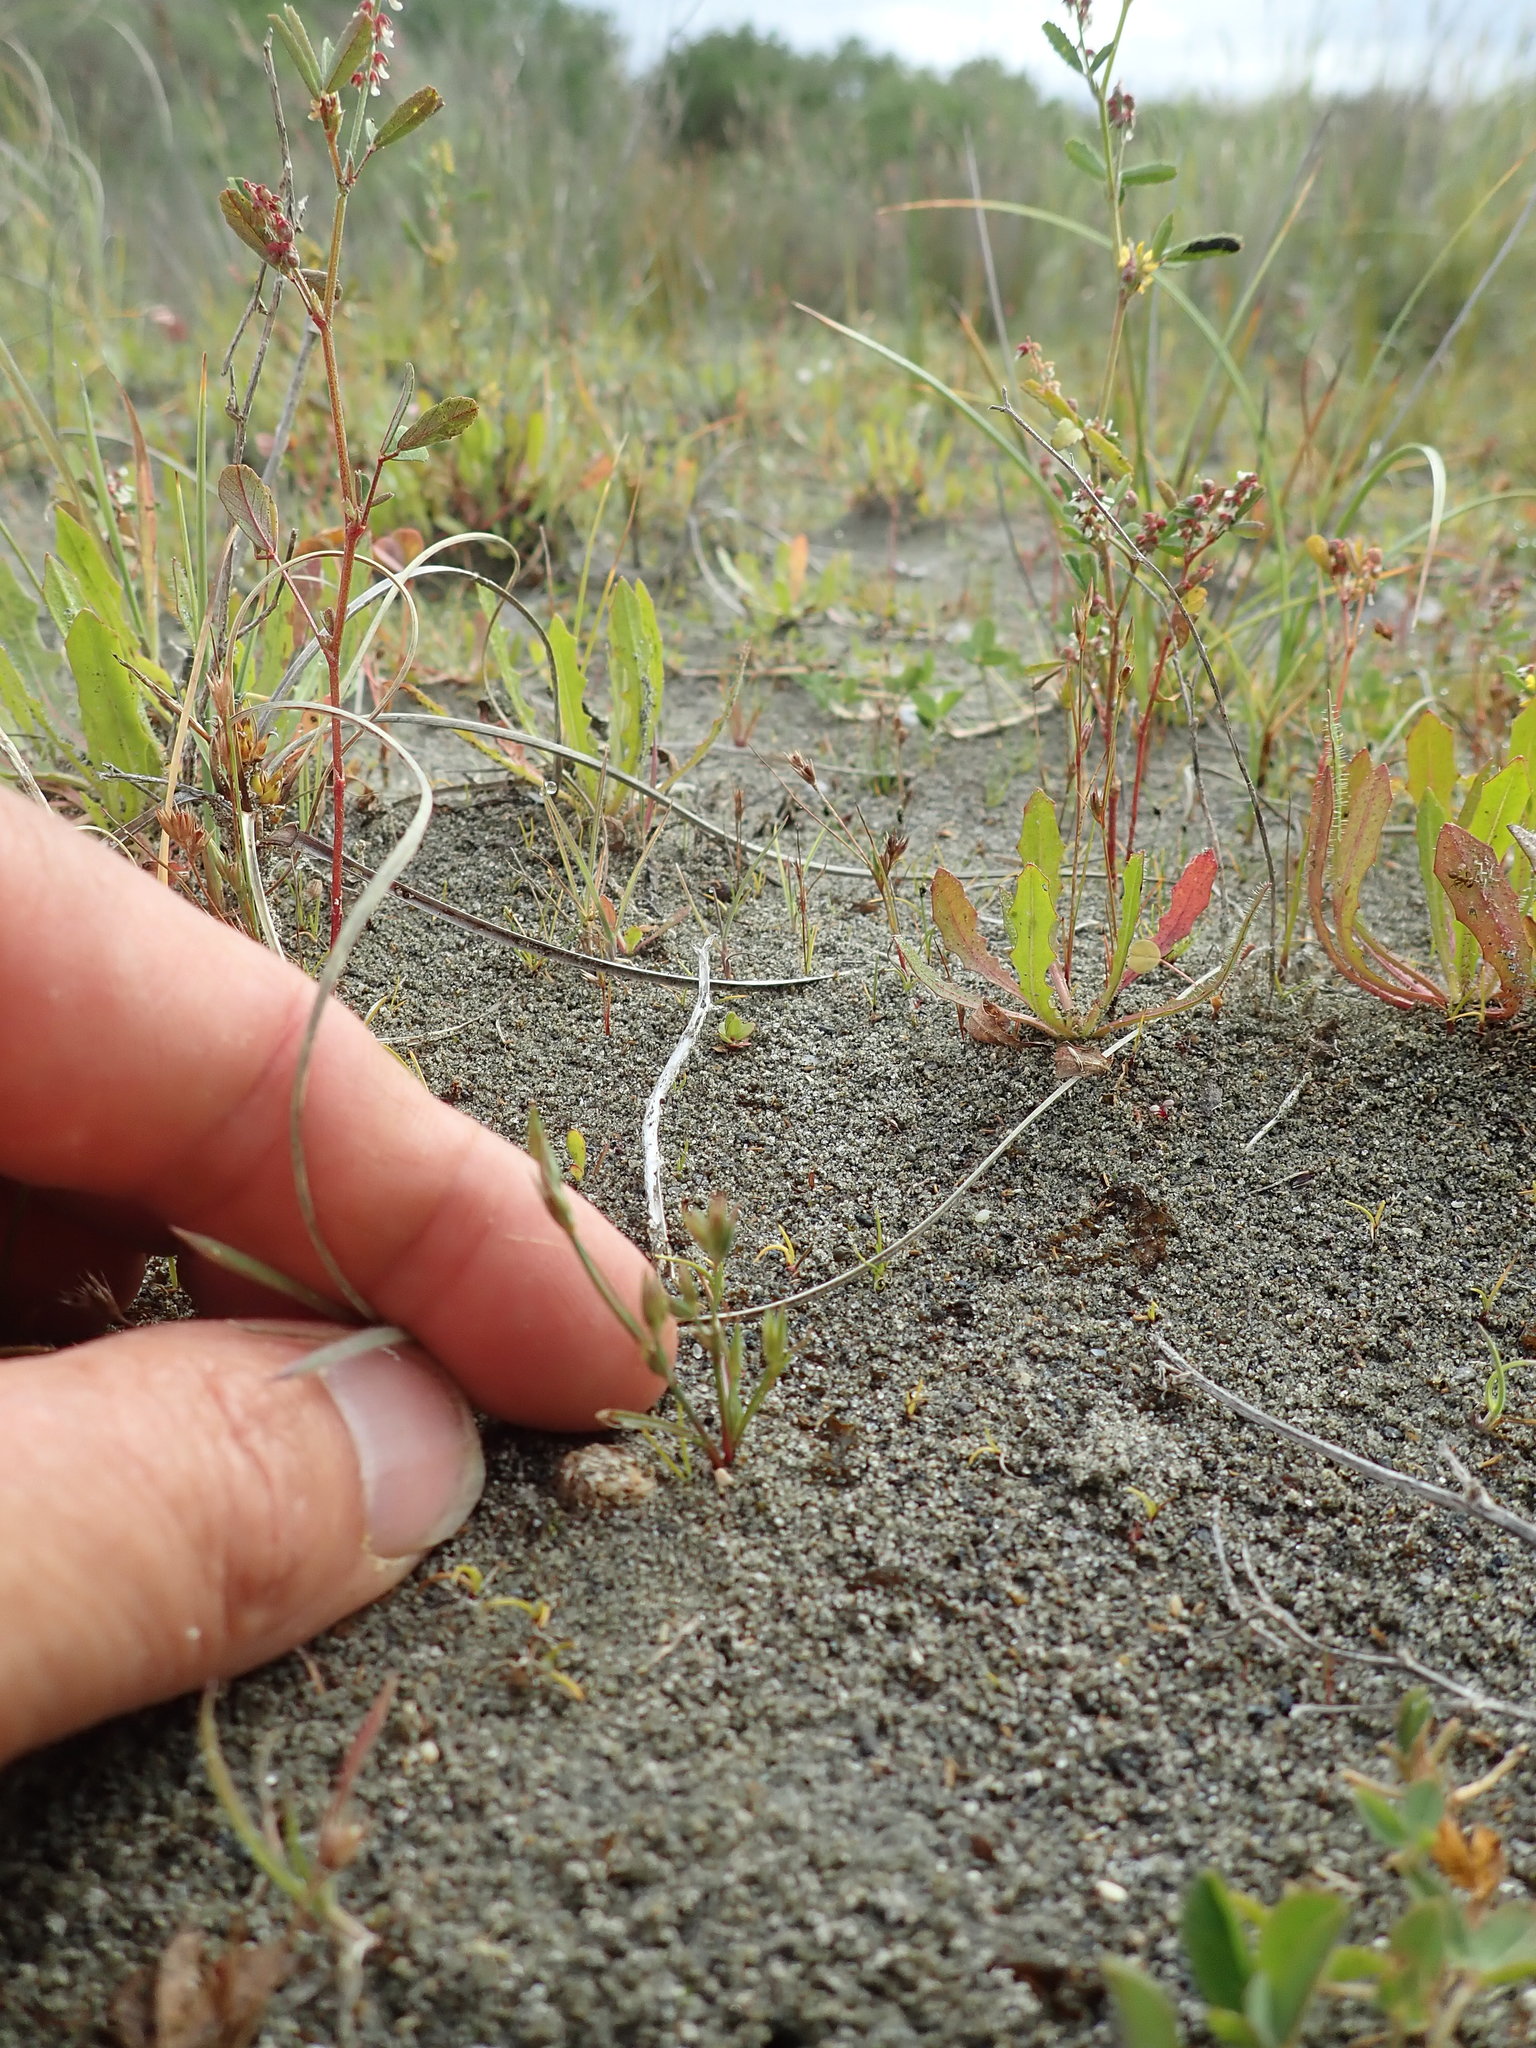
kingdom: Plantae
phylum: Tracheophyta
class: Liliopsida
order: Poales
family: Juncaceae
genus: Juncus
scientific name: Juncus bufonius
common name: Toad rush
